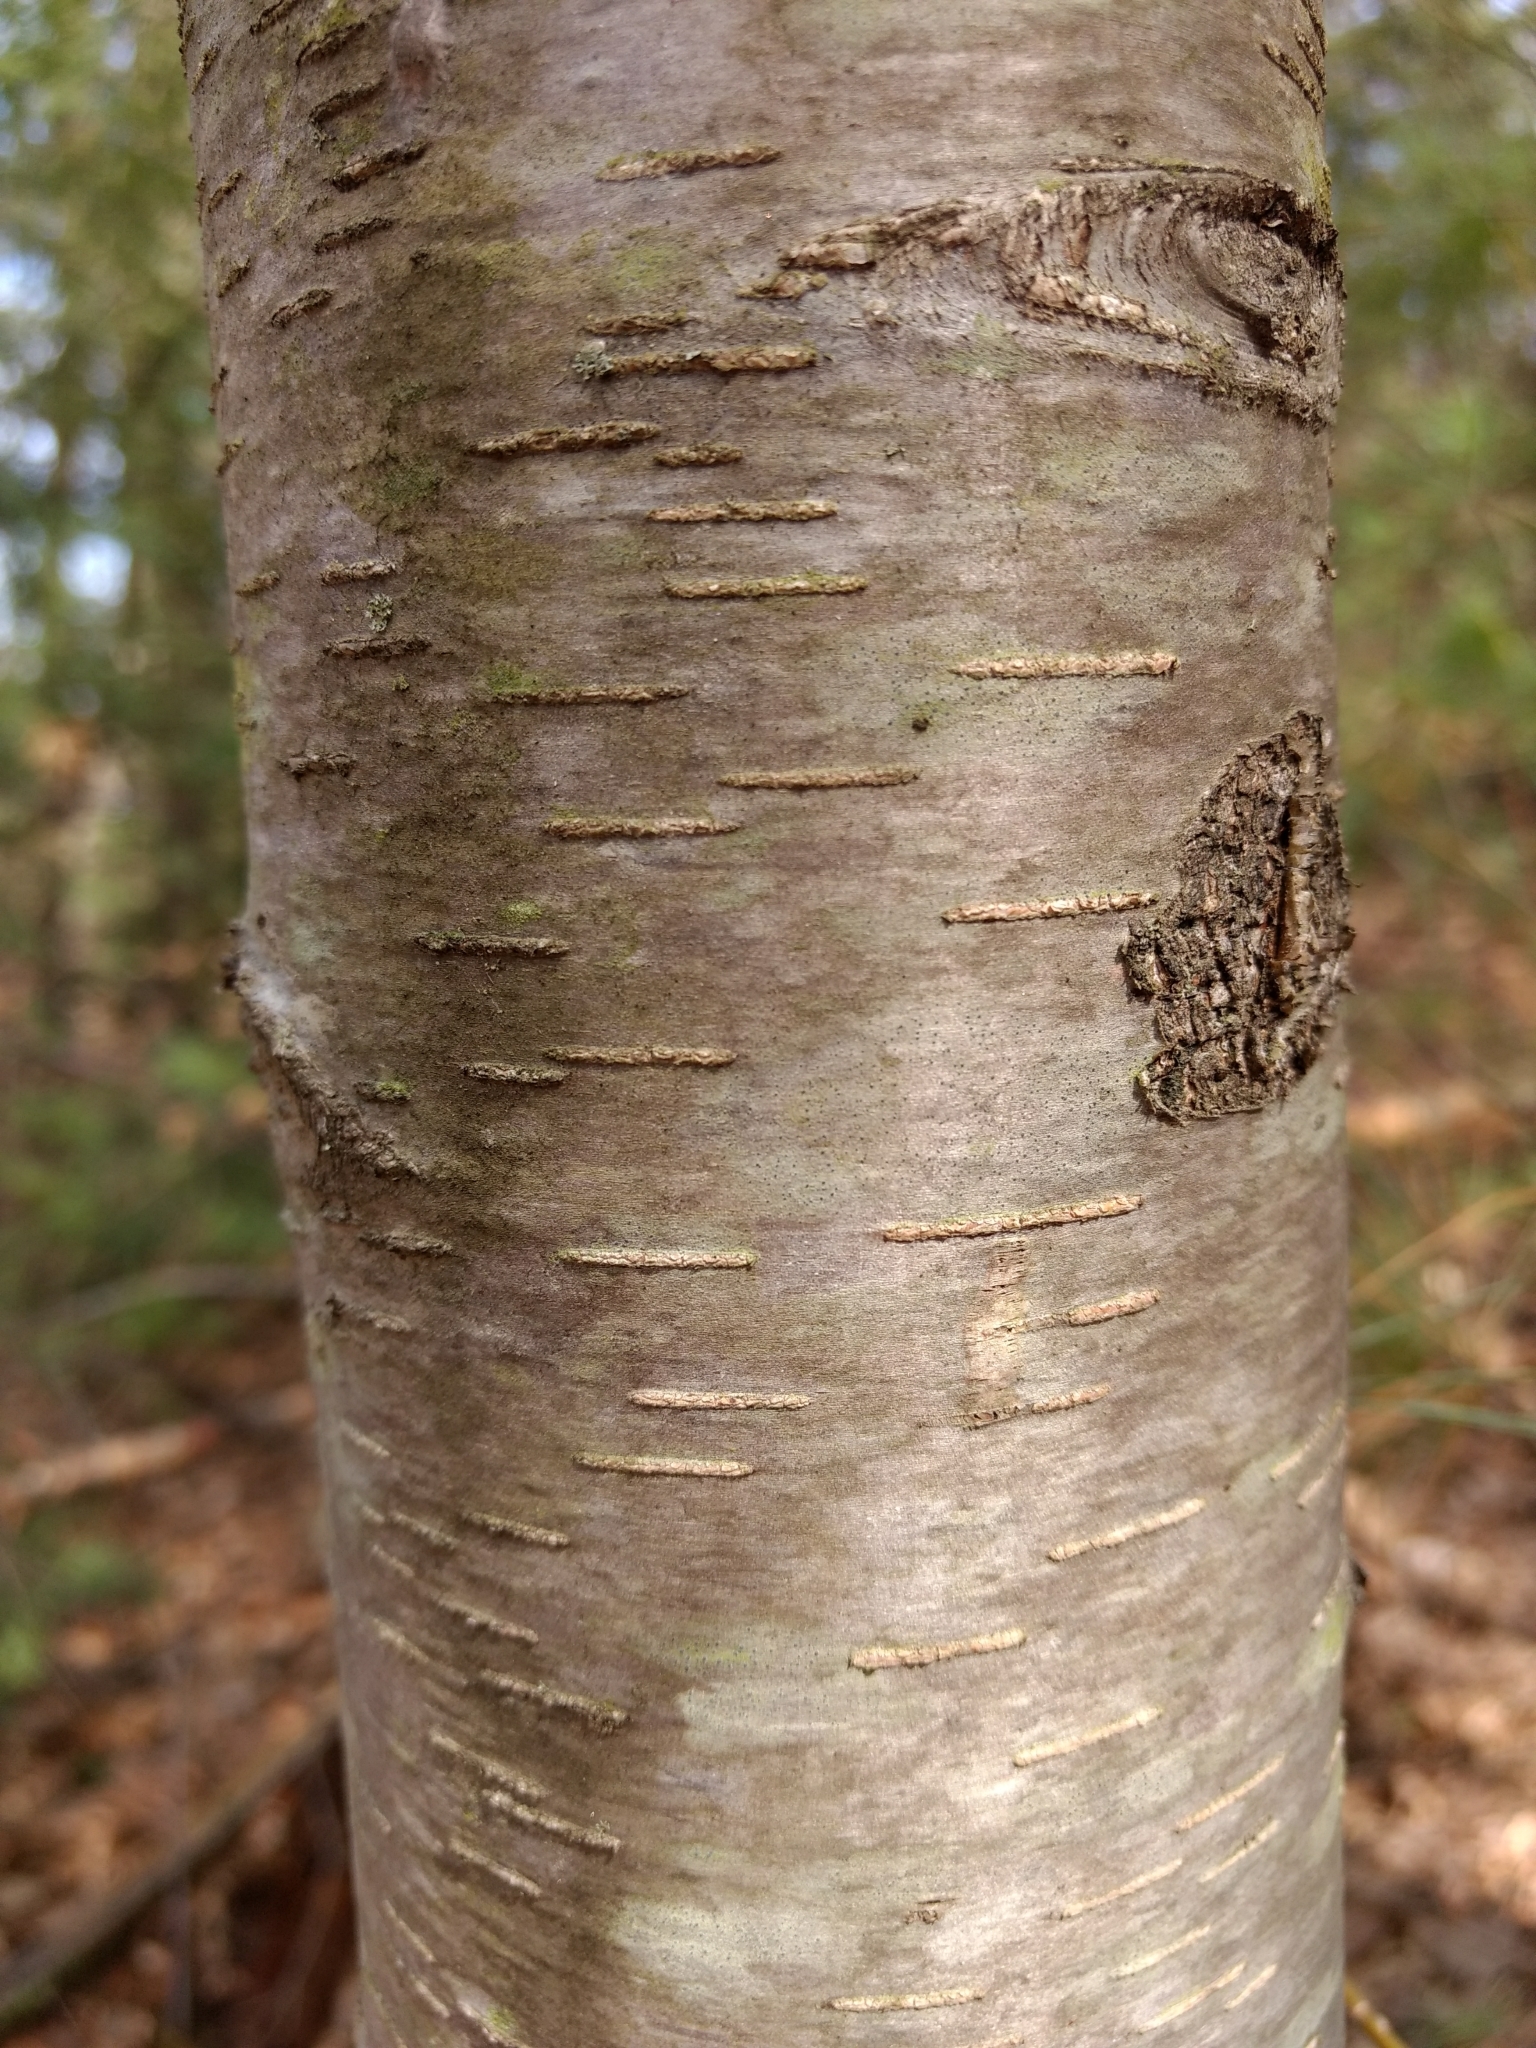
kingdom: Plantae
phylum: Tracheophyta
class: Magnoliopsida
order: Fagales
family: Betulaceae
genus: Betula
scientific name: Betula lenta
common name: Black birch
